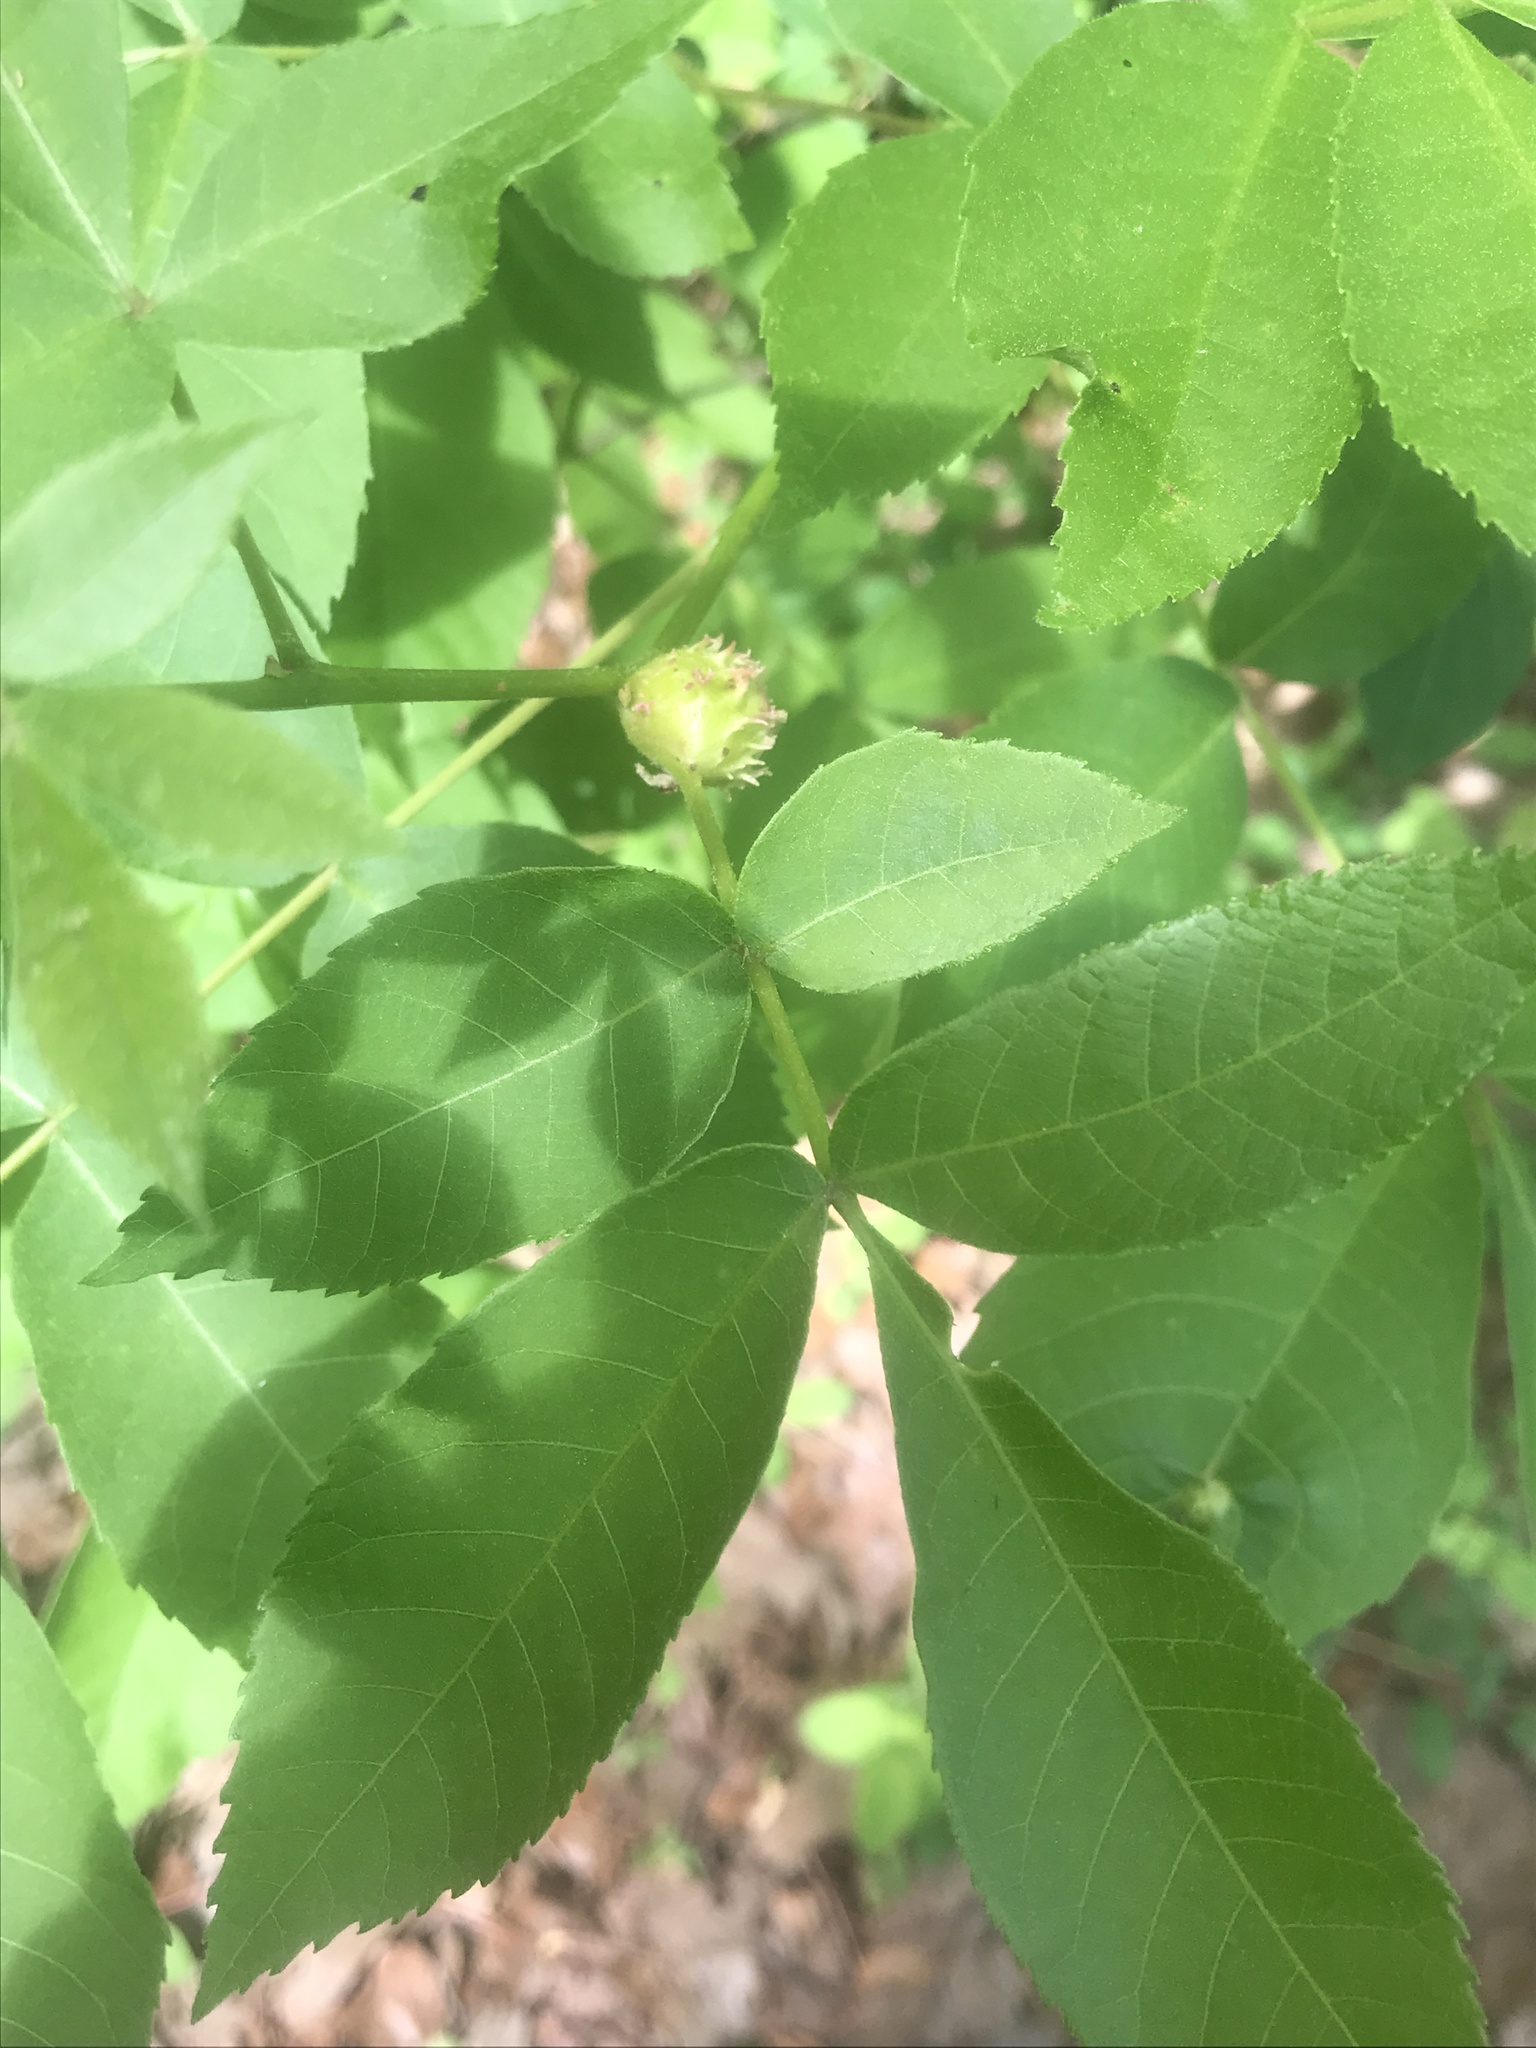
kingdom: Animalia
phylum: Arthropoda
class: Insecta
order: Hemiptera
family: Phylloxeridae
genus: Phylloxera
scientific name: Phylloxera spinosa
